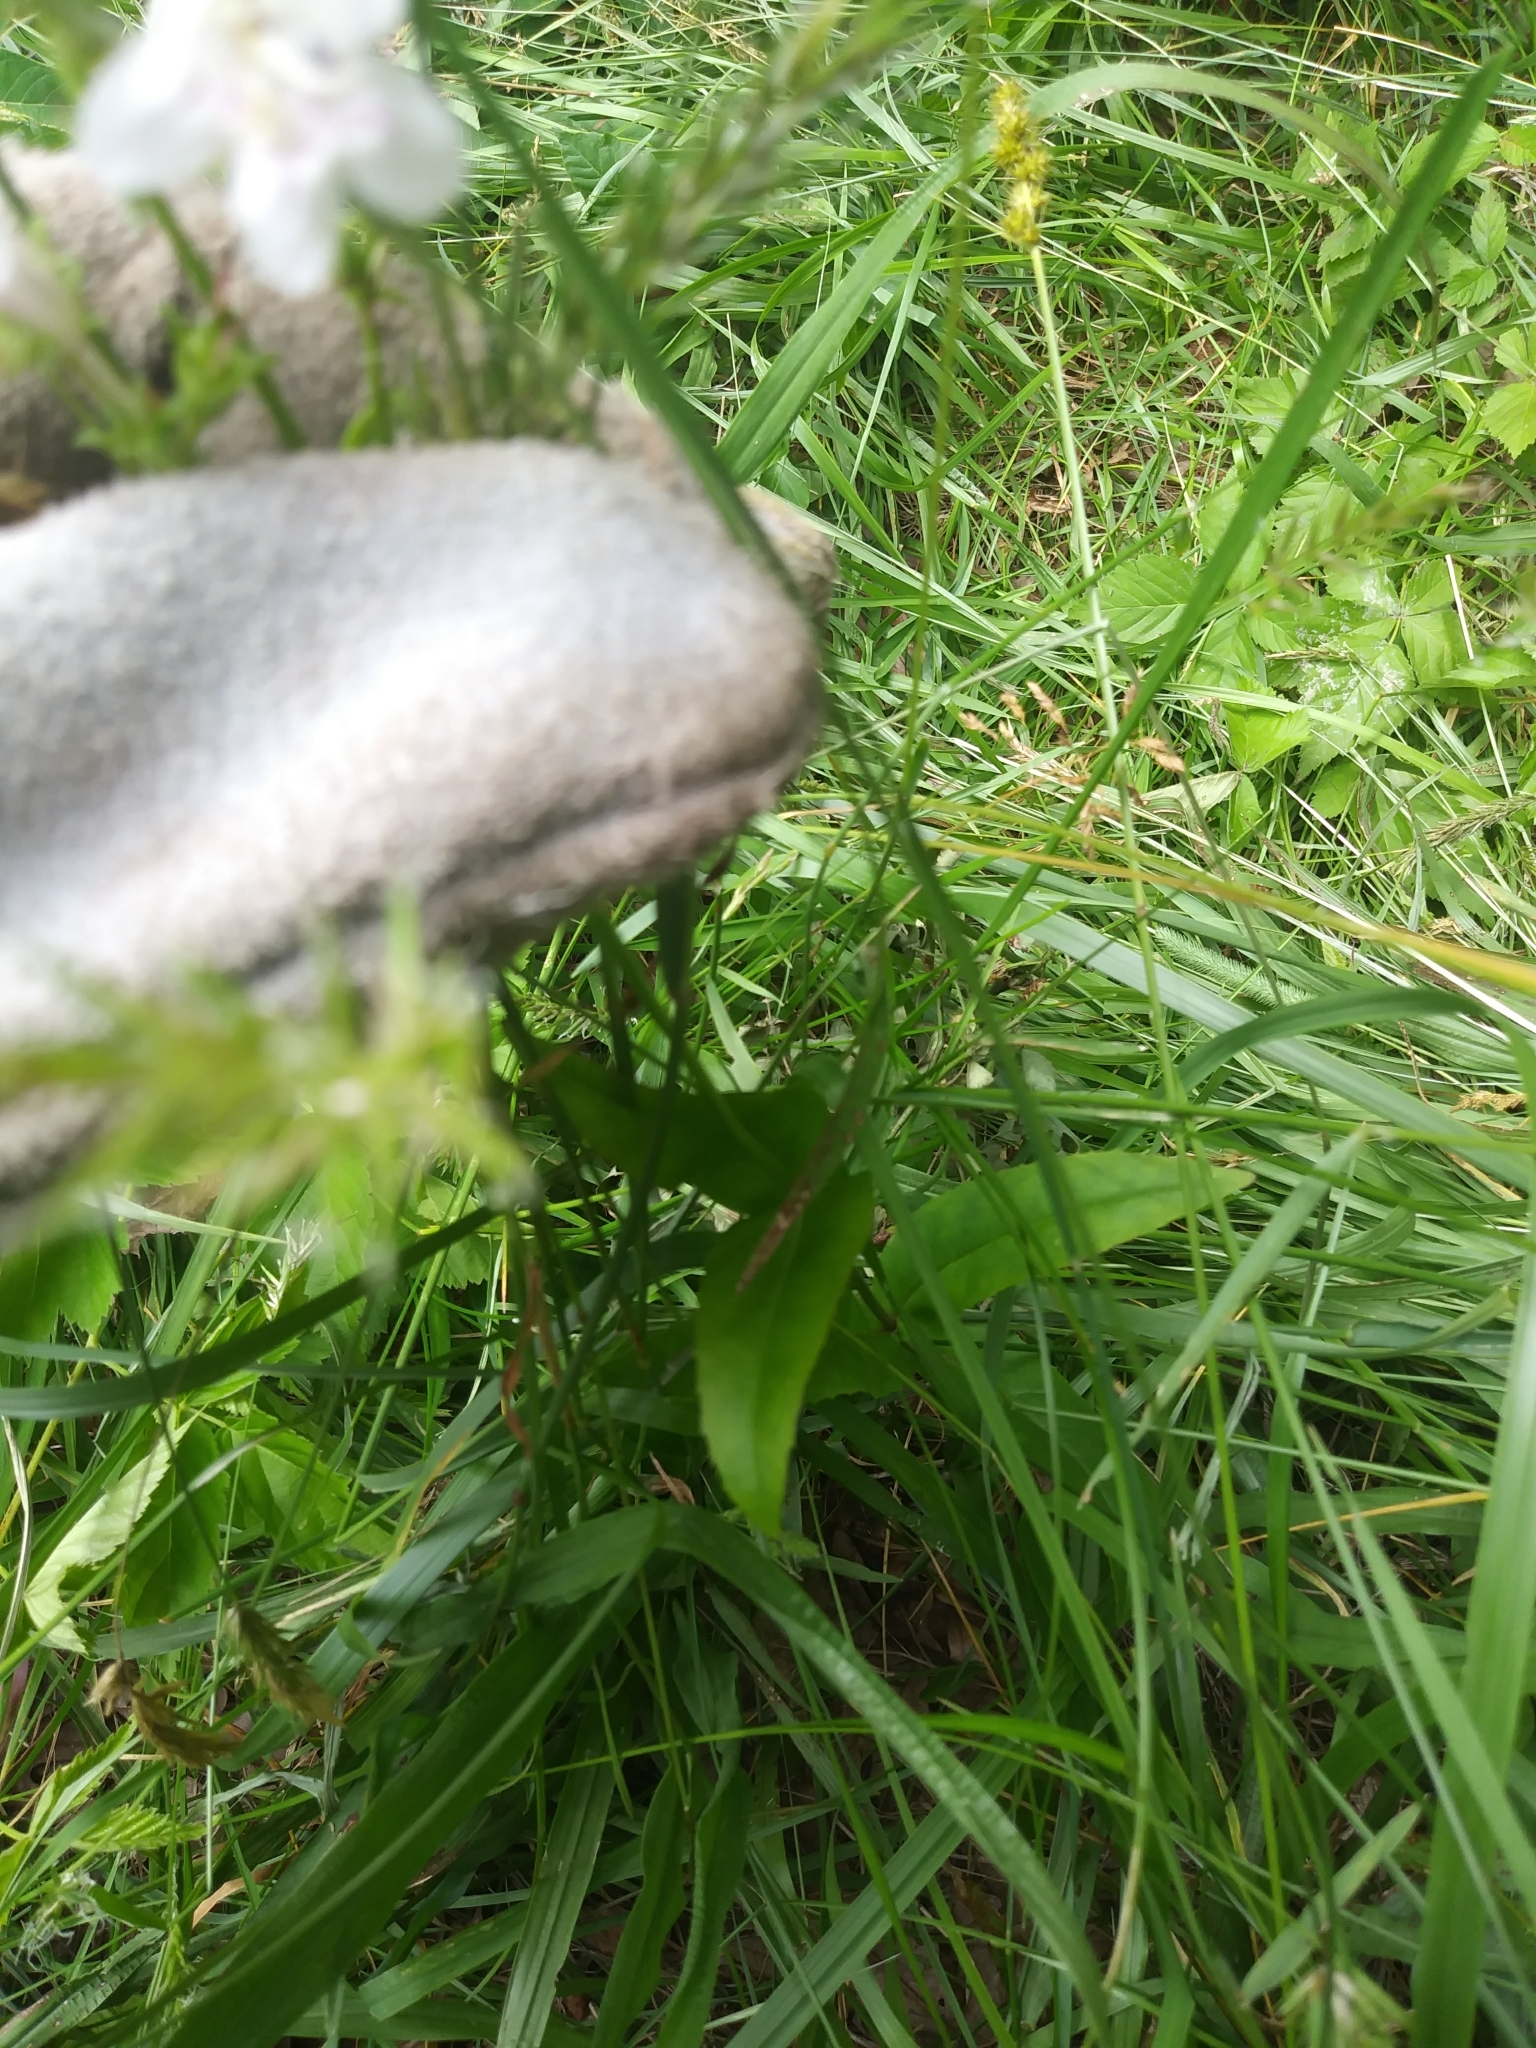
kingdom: Plantae
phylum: Tracheophyta
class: Magnoliopsida
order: Lamiales
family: Plantaginaceae
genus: Penstemon
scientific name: Penstemon digitalis
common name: Foxglove beardtongue
